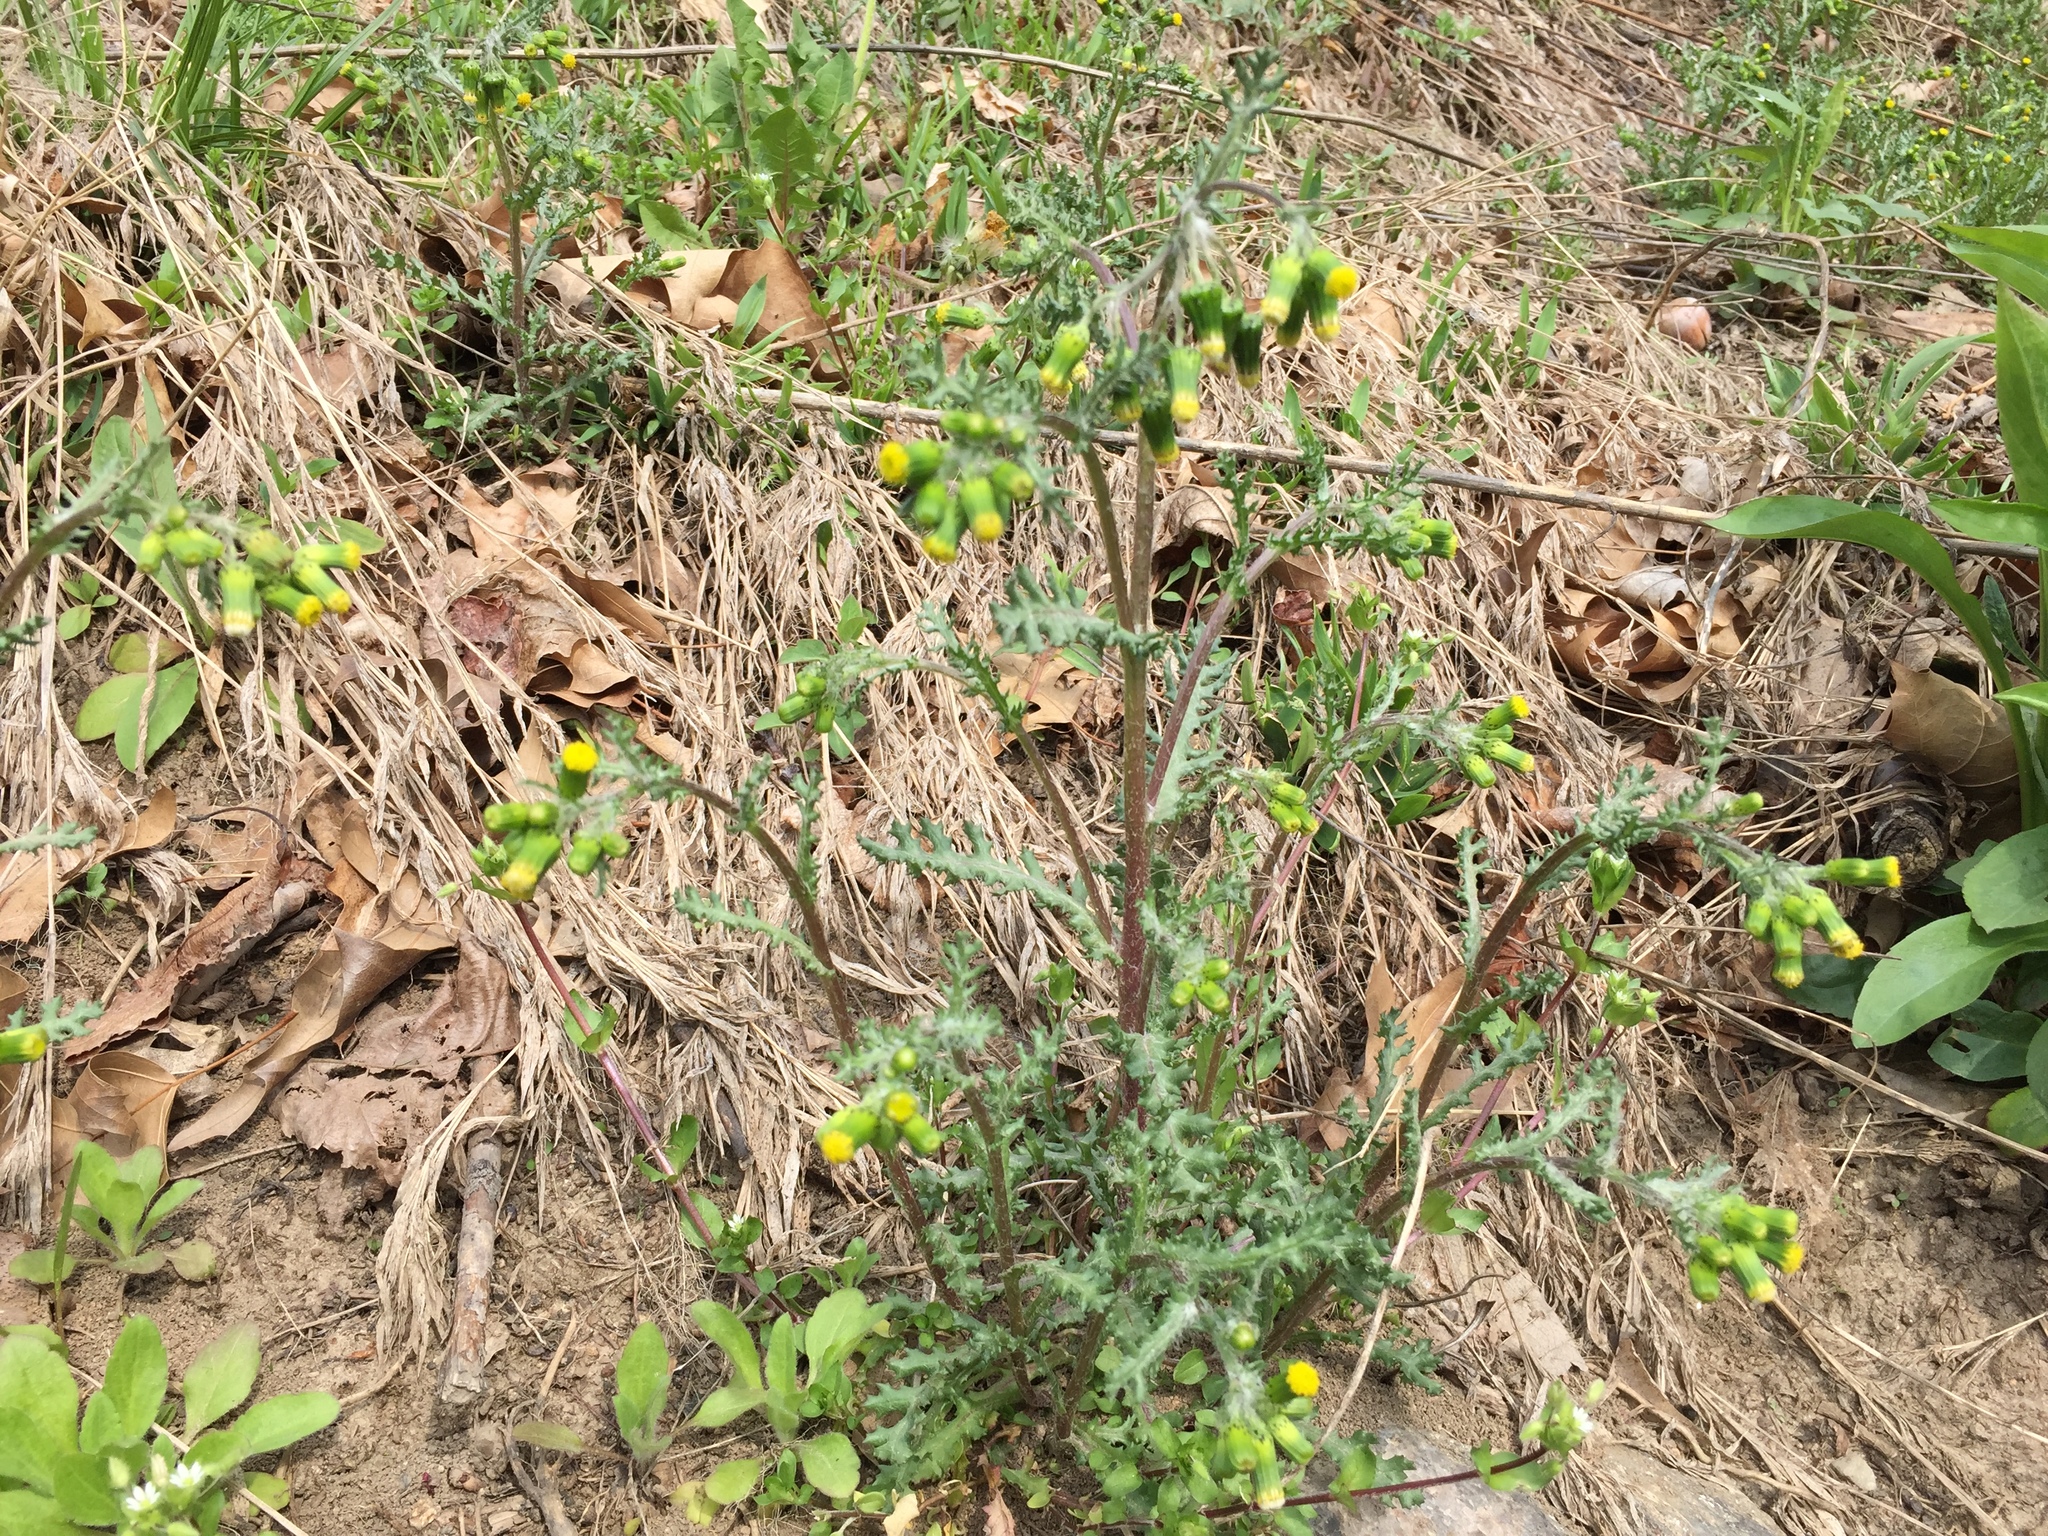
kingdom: Plantae
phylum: Tracheophyta
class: Magnoliopsida
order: Asterales
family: Asteraceae
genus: Senecio
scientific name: Senecio vulgaris
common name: Old-man-in-the-spring
